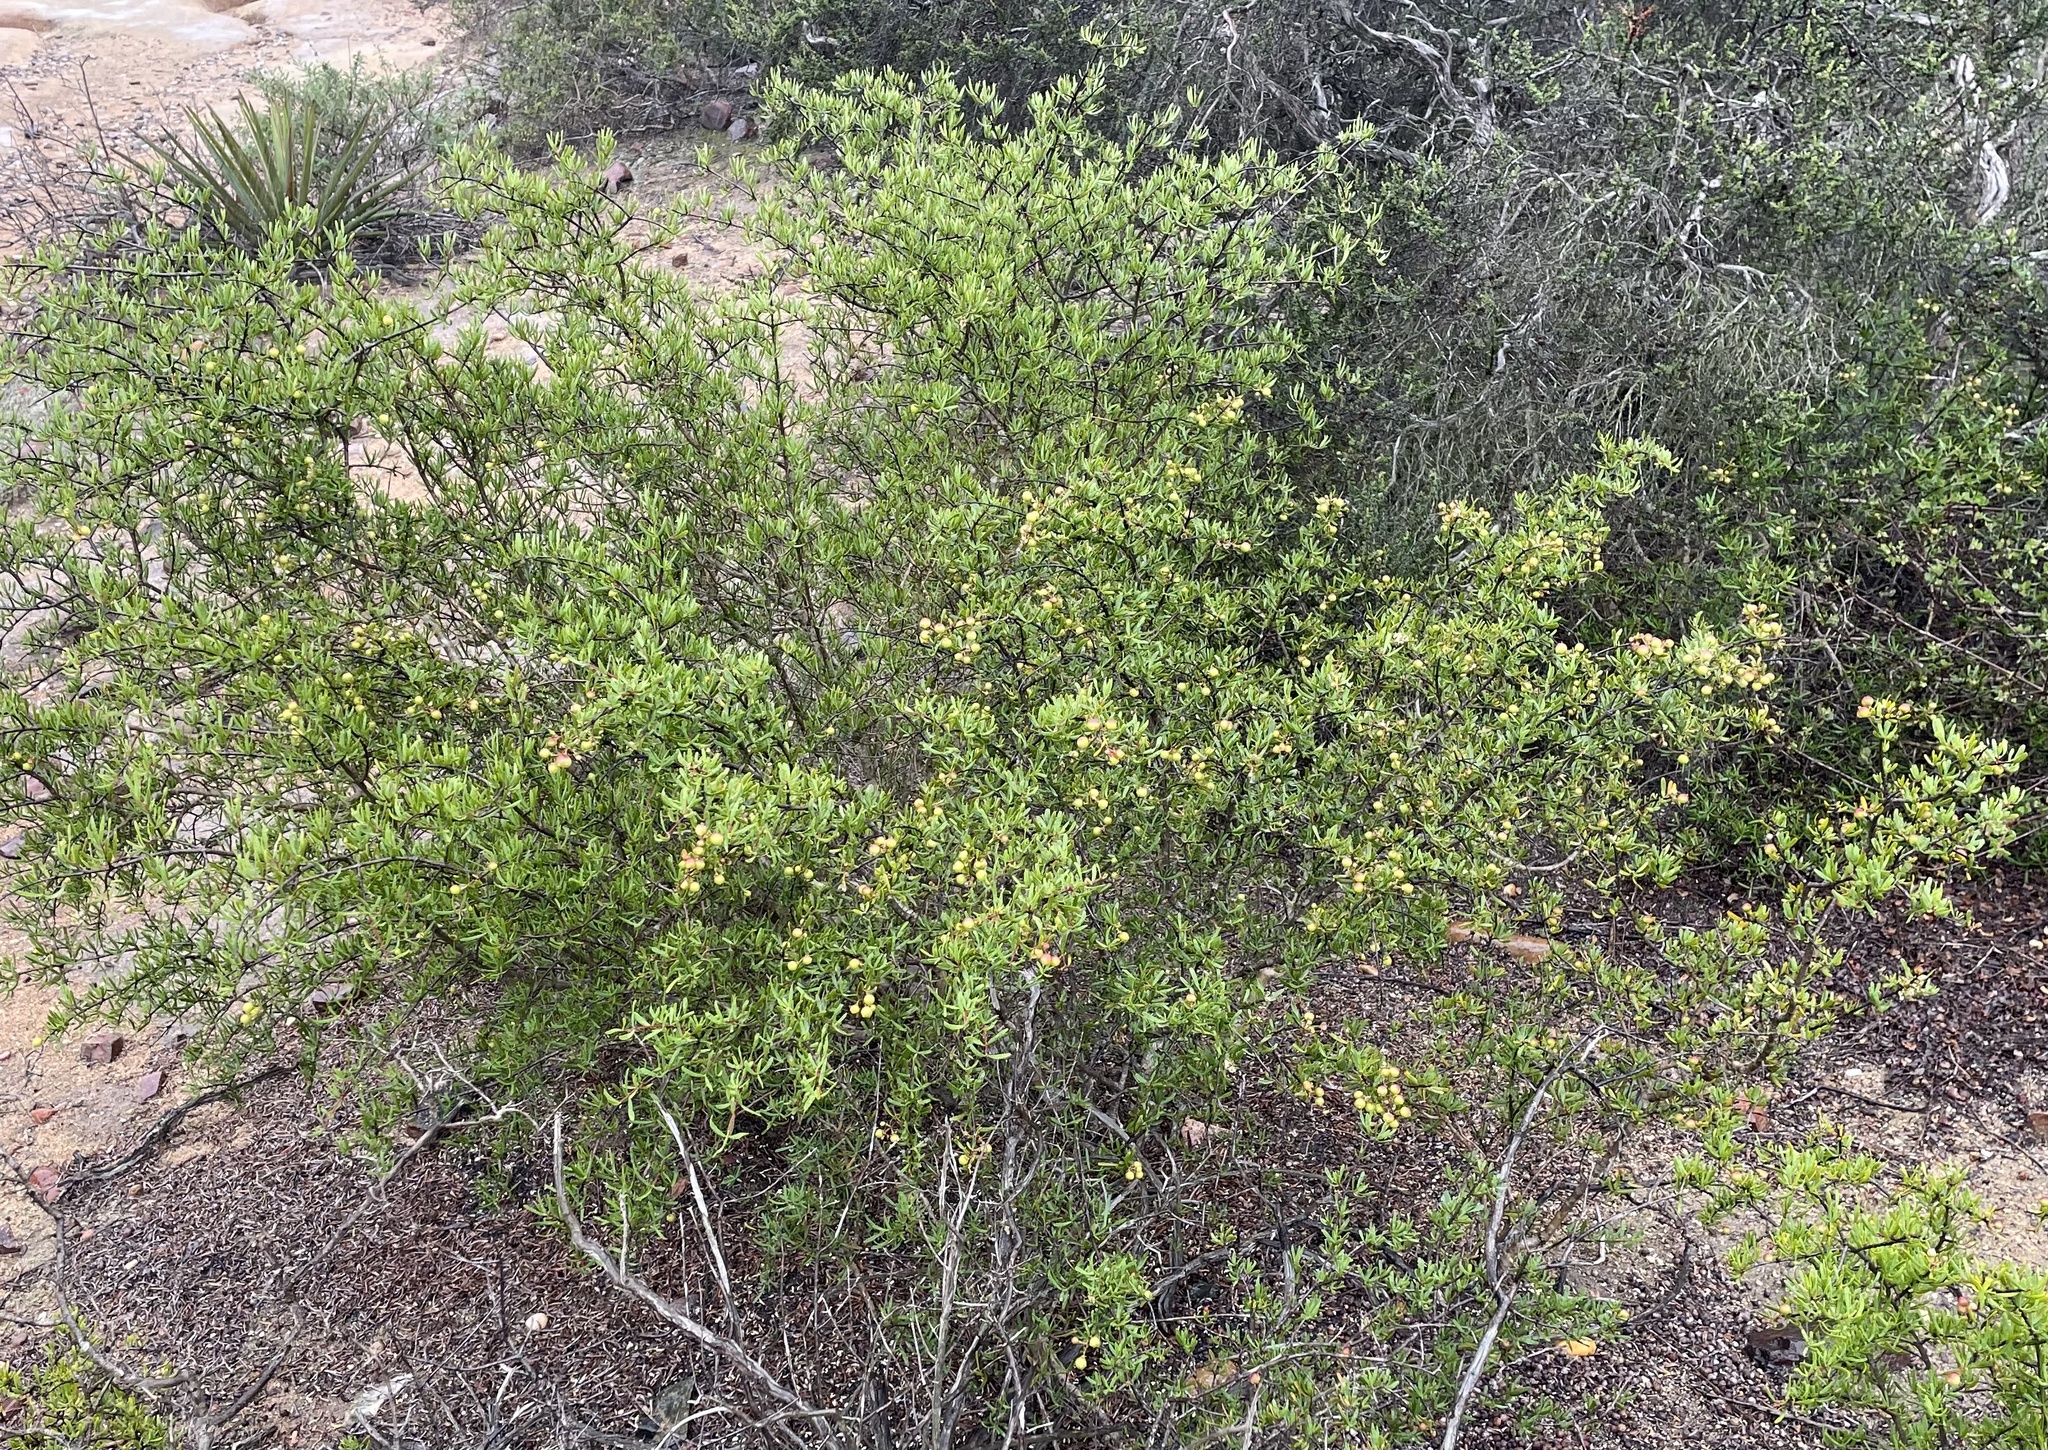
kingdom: Plantae
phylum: Tracheophyta
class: Magnoliopsida
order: Sapindales
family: Rutaceae
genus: Cneoridium
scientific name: Cneoridium dumosum
